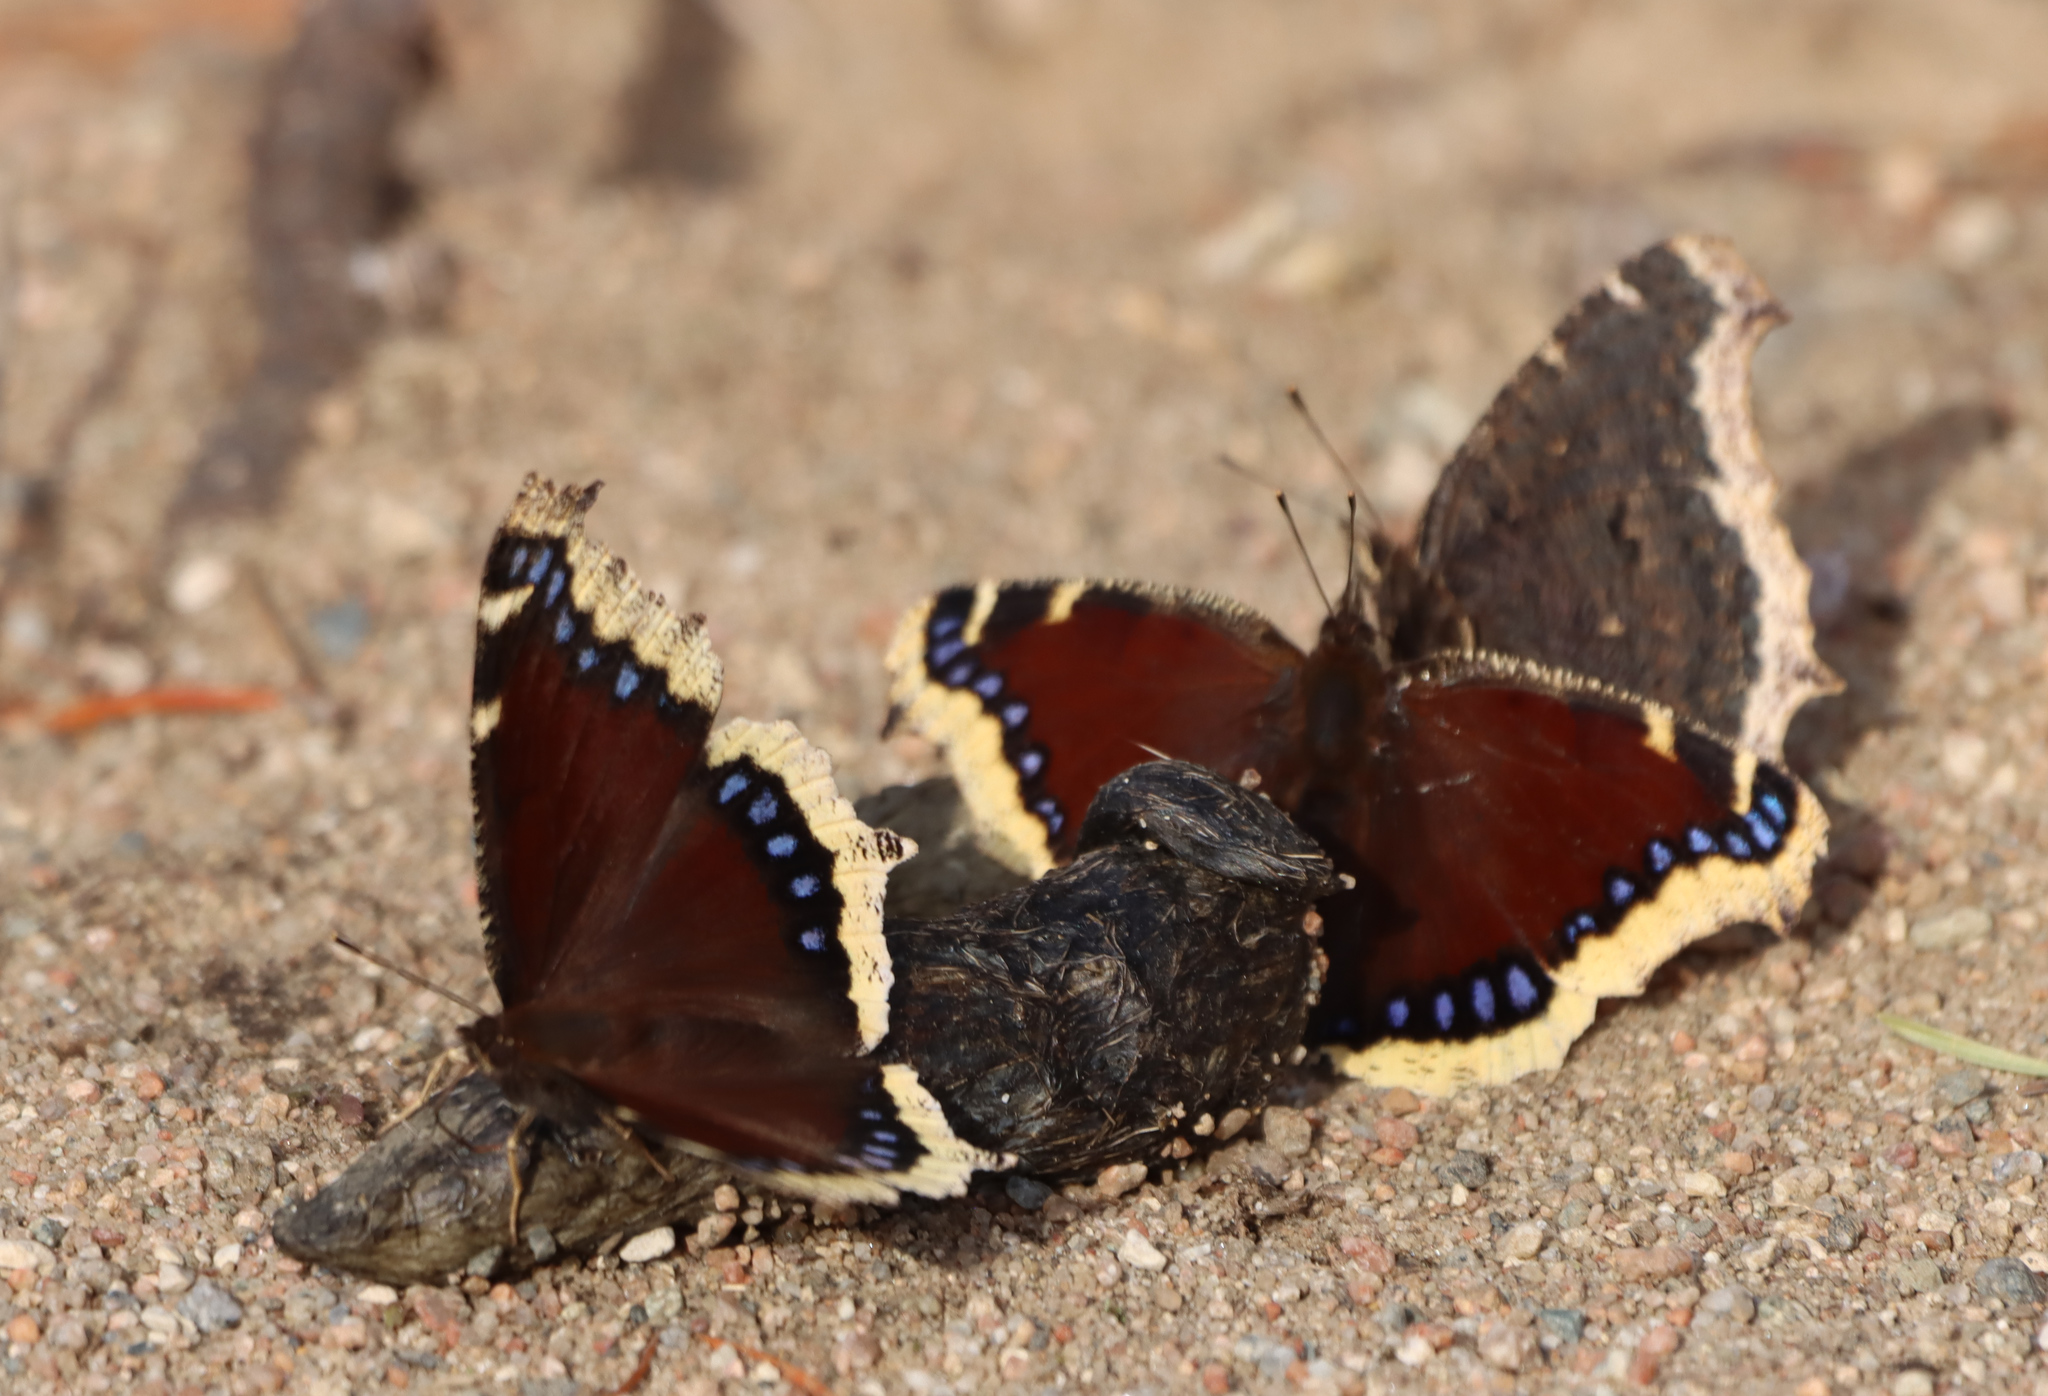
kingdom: Animalia
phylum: Arthropoda
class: Insecta
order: Lepidoptera
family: Nymphalidae
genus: Nymphalis
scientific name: Nymphalis antiopa
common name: Camberwell beauty
